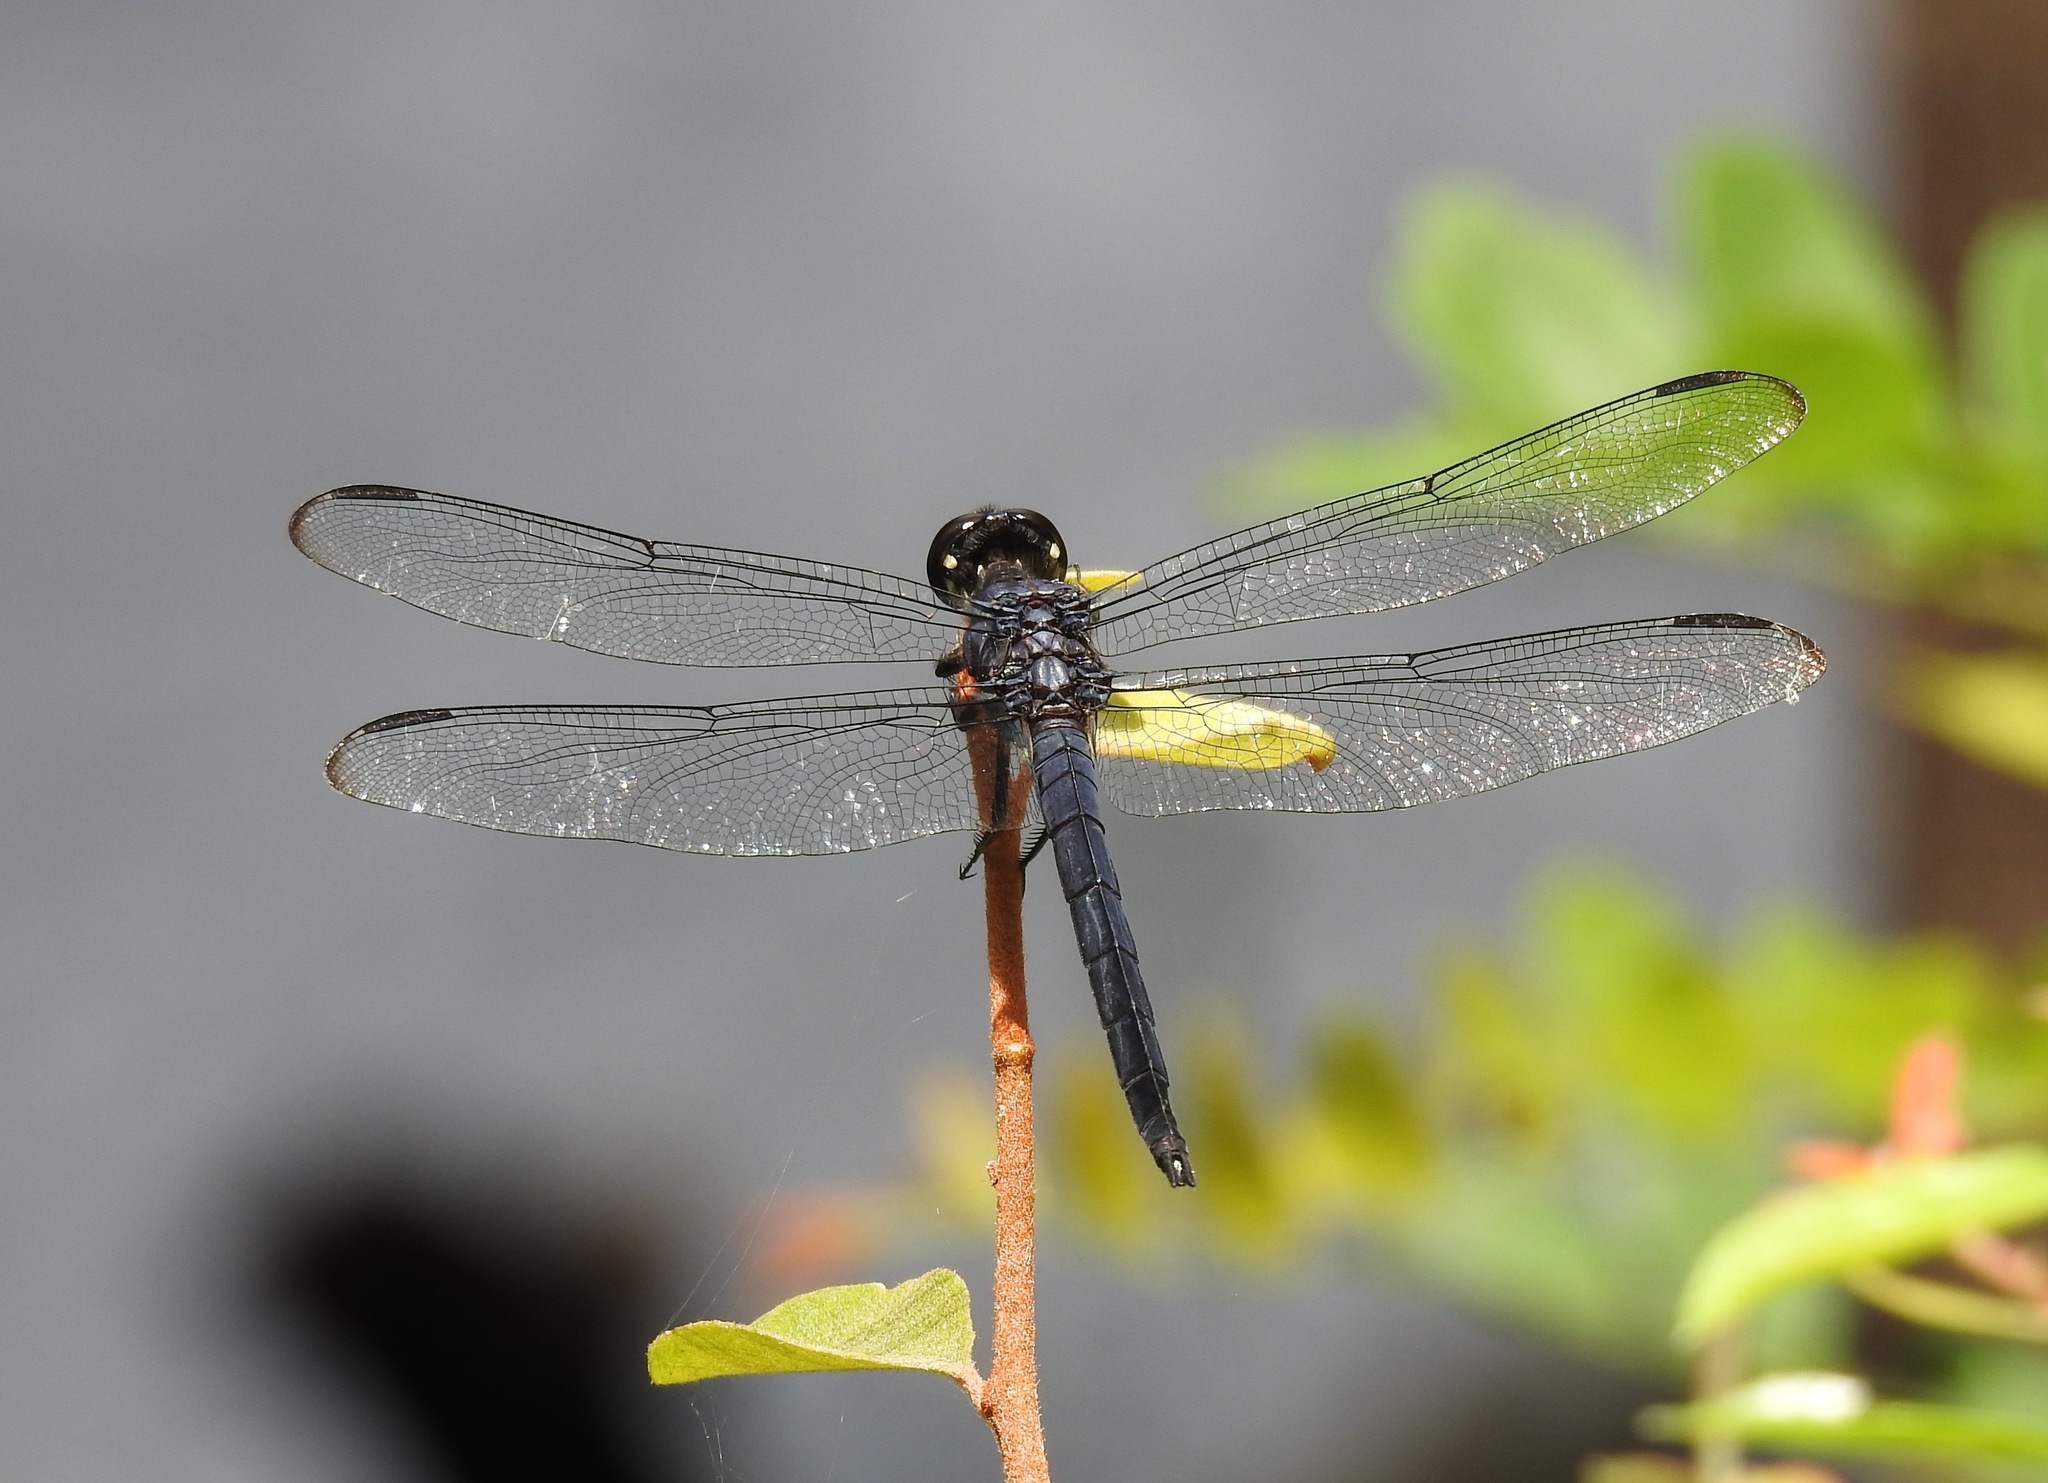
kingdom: Animalia
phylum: Arthropoda
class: Insecta
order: Odonata
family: Libellulidae
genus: Libellula
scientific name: Libellula incesta
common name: Slaty skimmer
